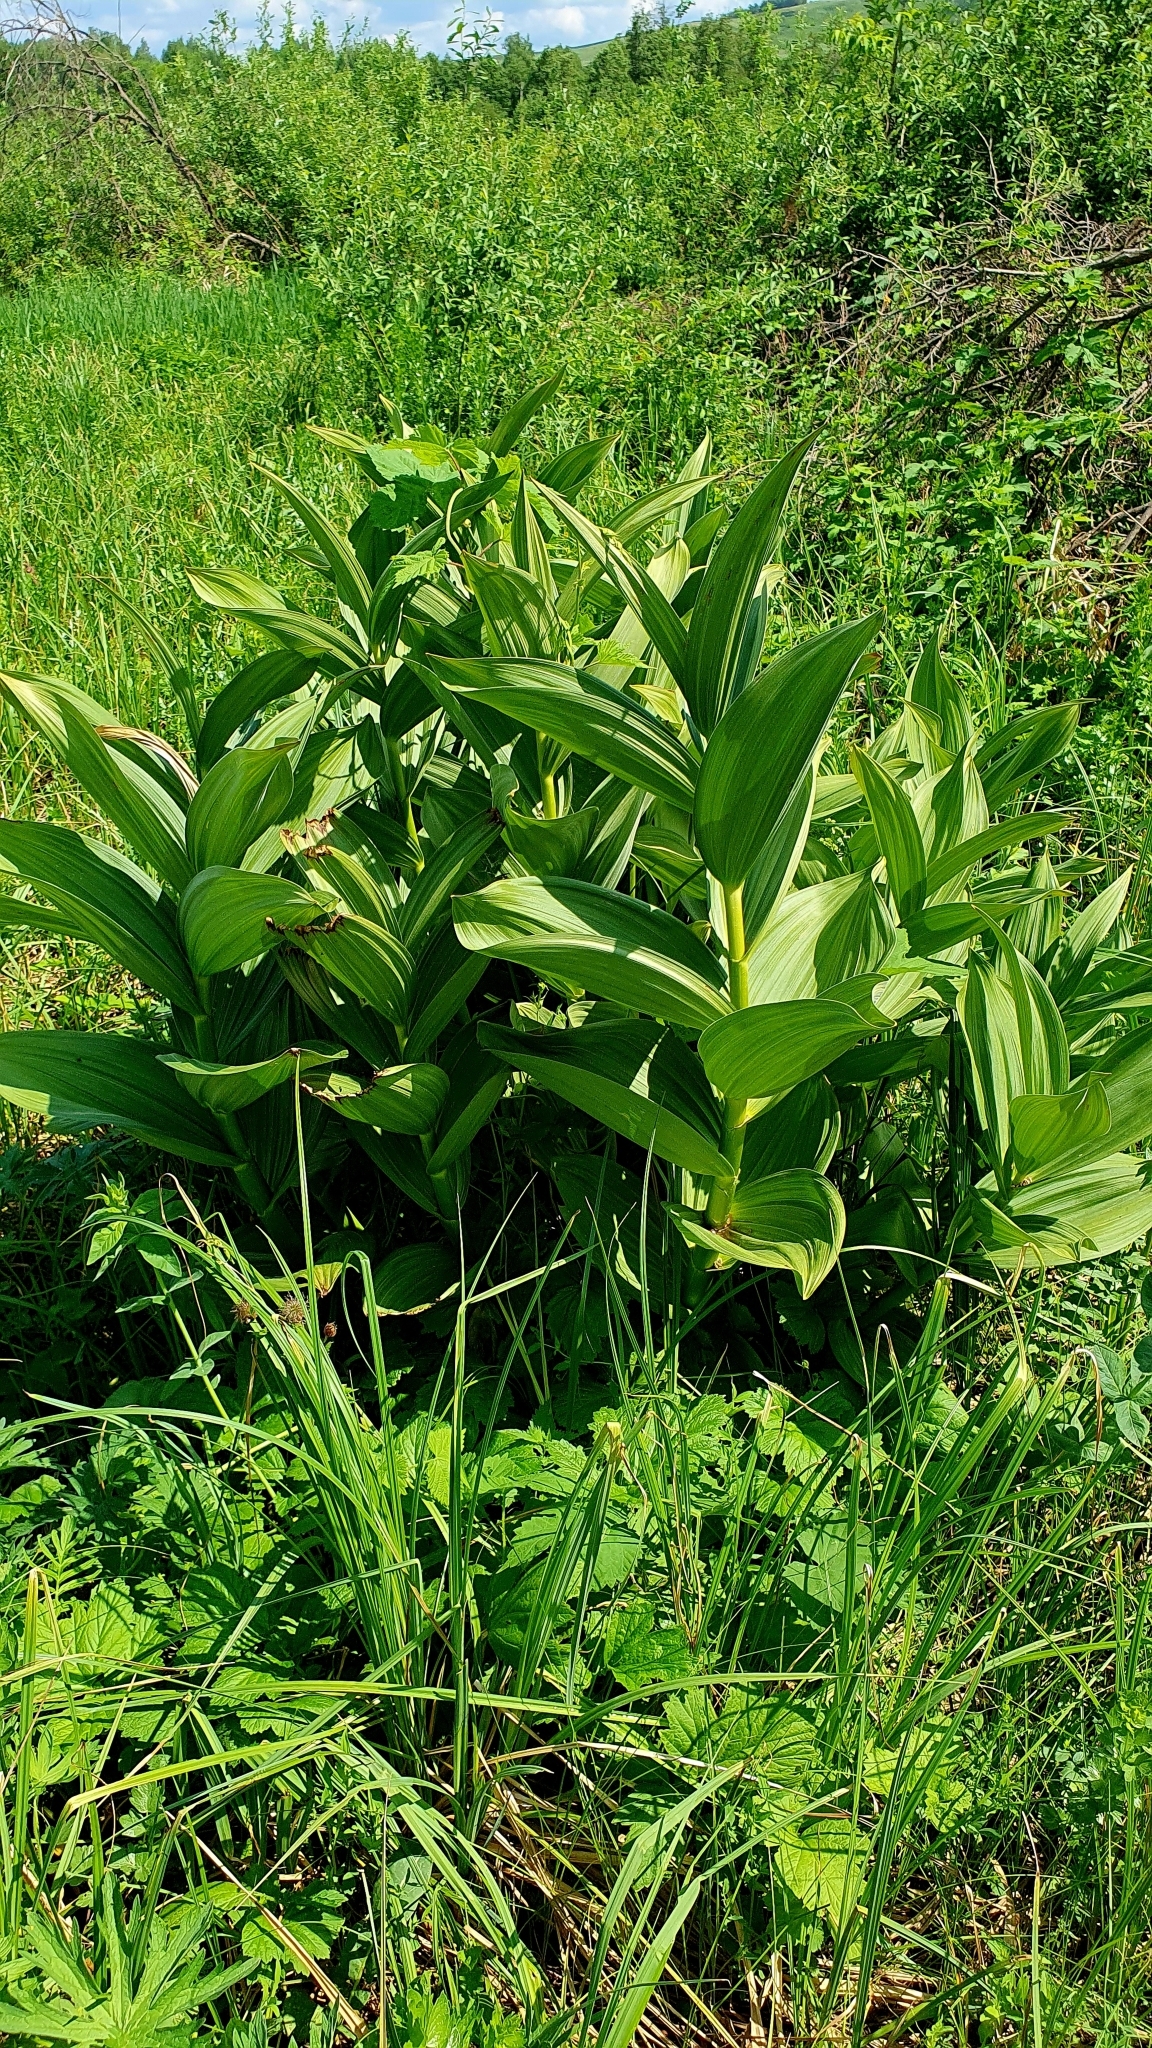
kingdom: Plantae
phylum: Tracheophyta
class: Liliopsida
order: Liliales
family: Melanthiaceae
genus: Veratrum
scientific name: Veratrum lobelianum
